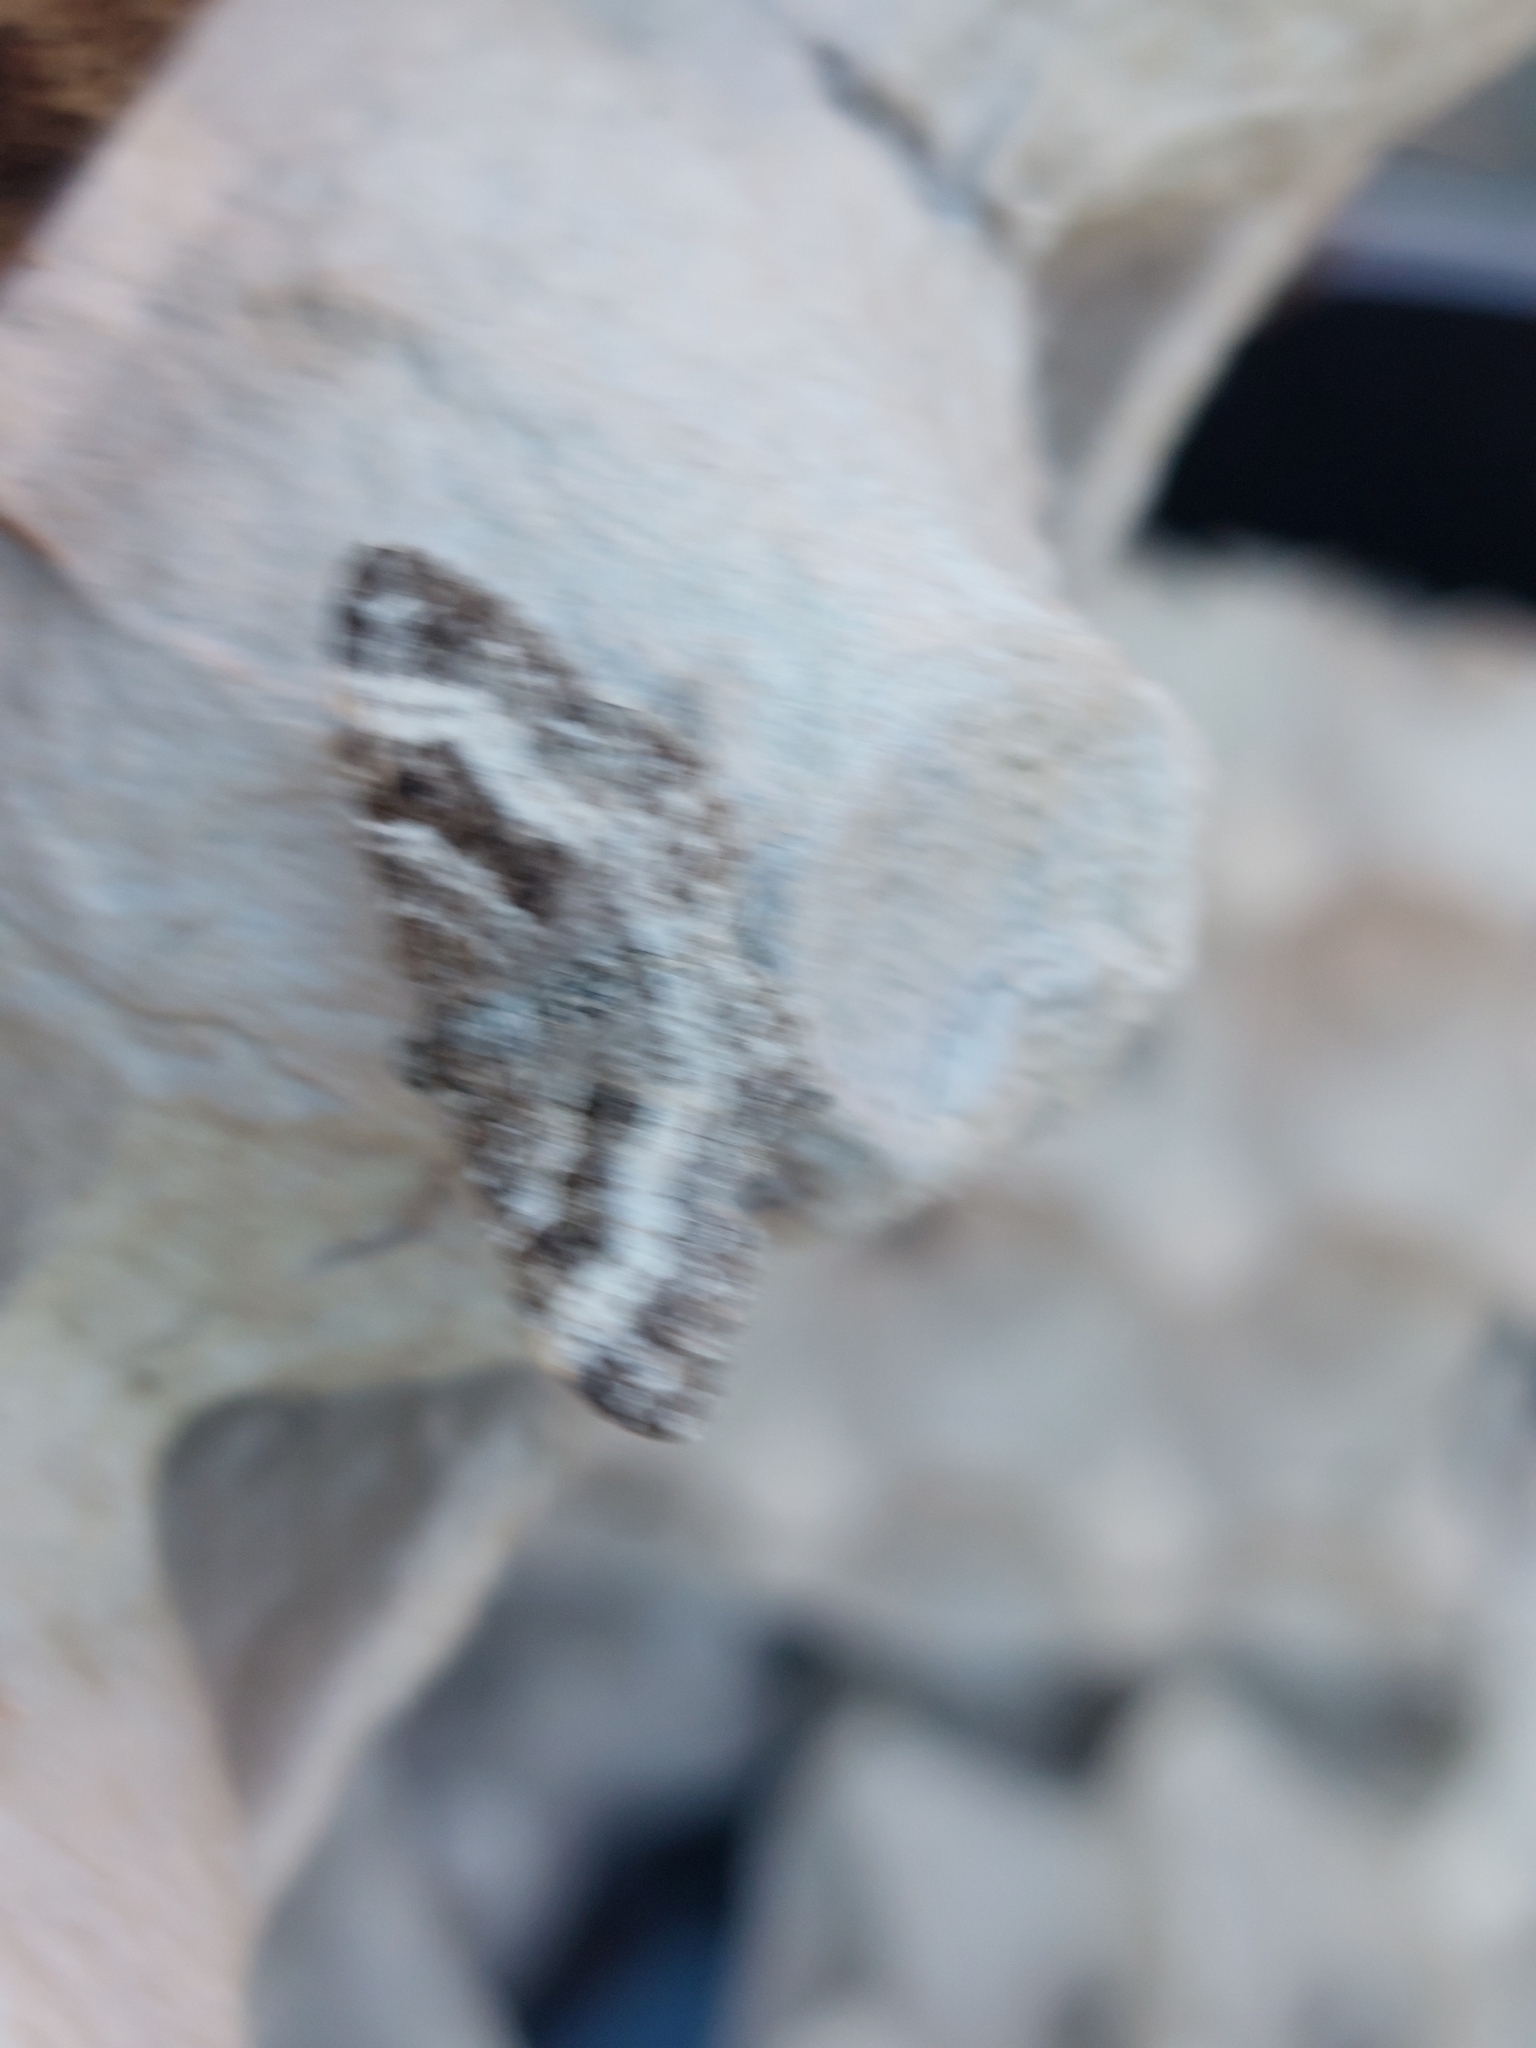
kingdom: Animalia
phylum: Arthropoda
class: Insecta
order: Lepidoptera
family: Geometridae
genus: Epirrhoe
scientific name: Epirrhoe alternata
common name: Common carpet
